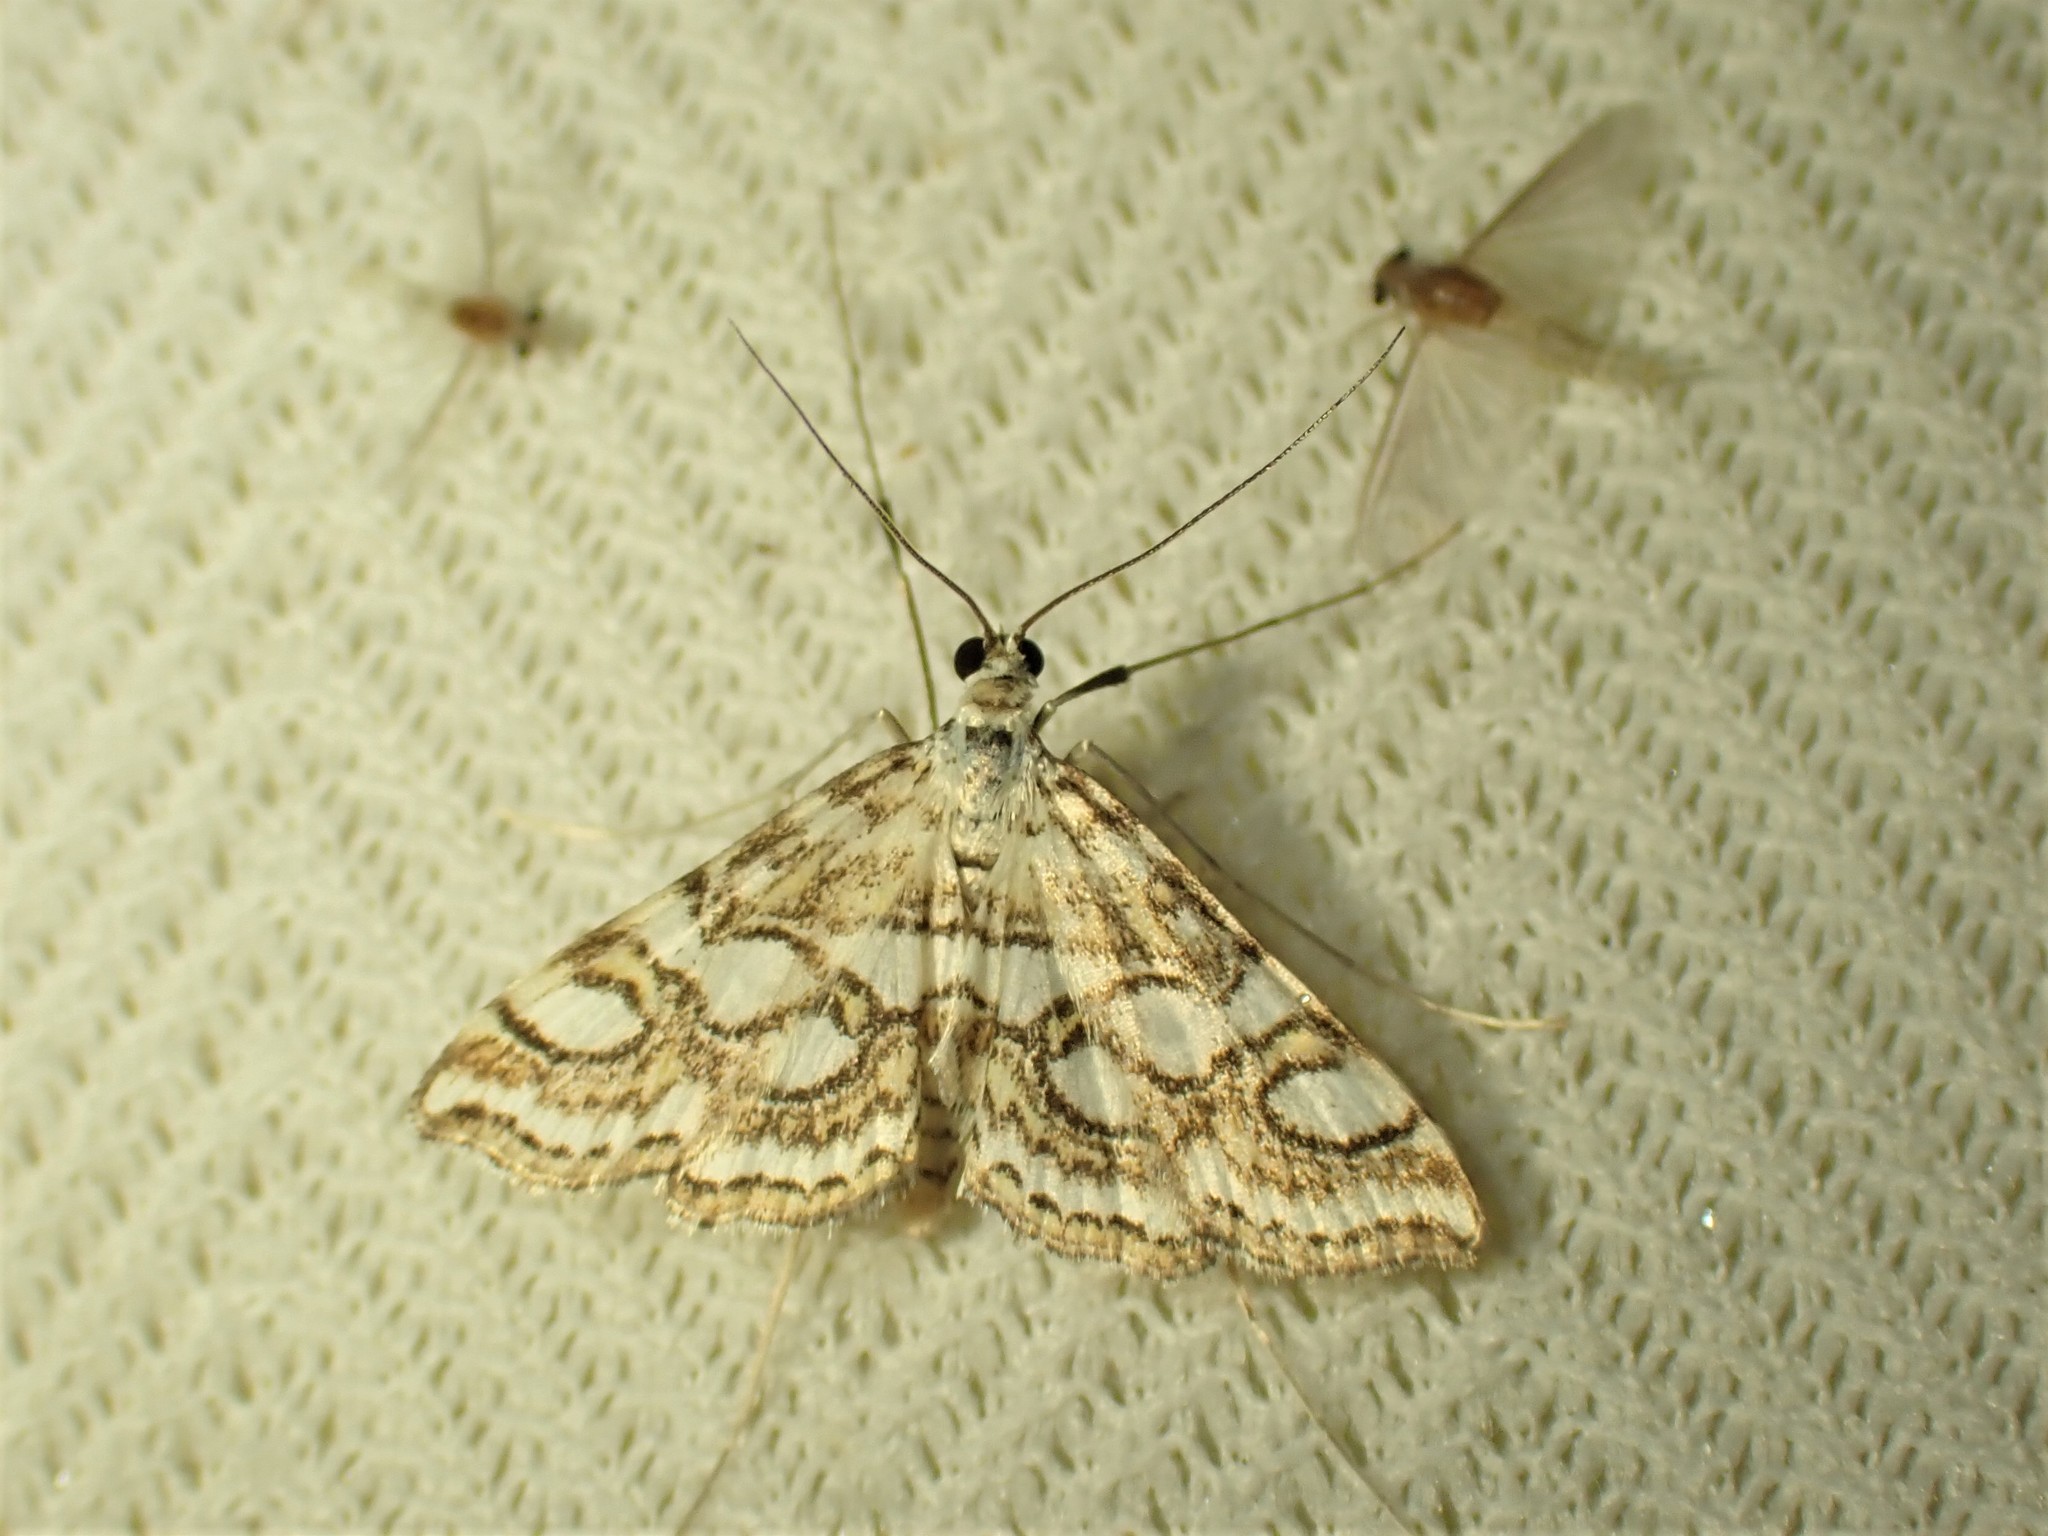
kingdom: Animalia
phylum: Arthropoda
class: Insecta
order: Lepidoptera
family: Crambidae
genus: Elophila
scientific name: Elophila ekthlipsis
